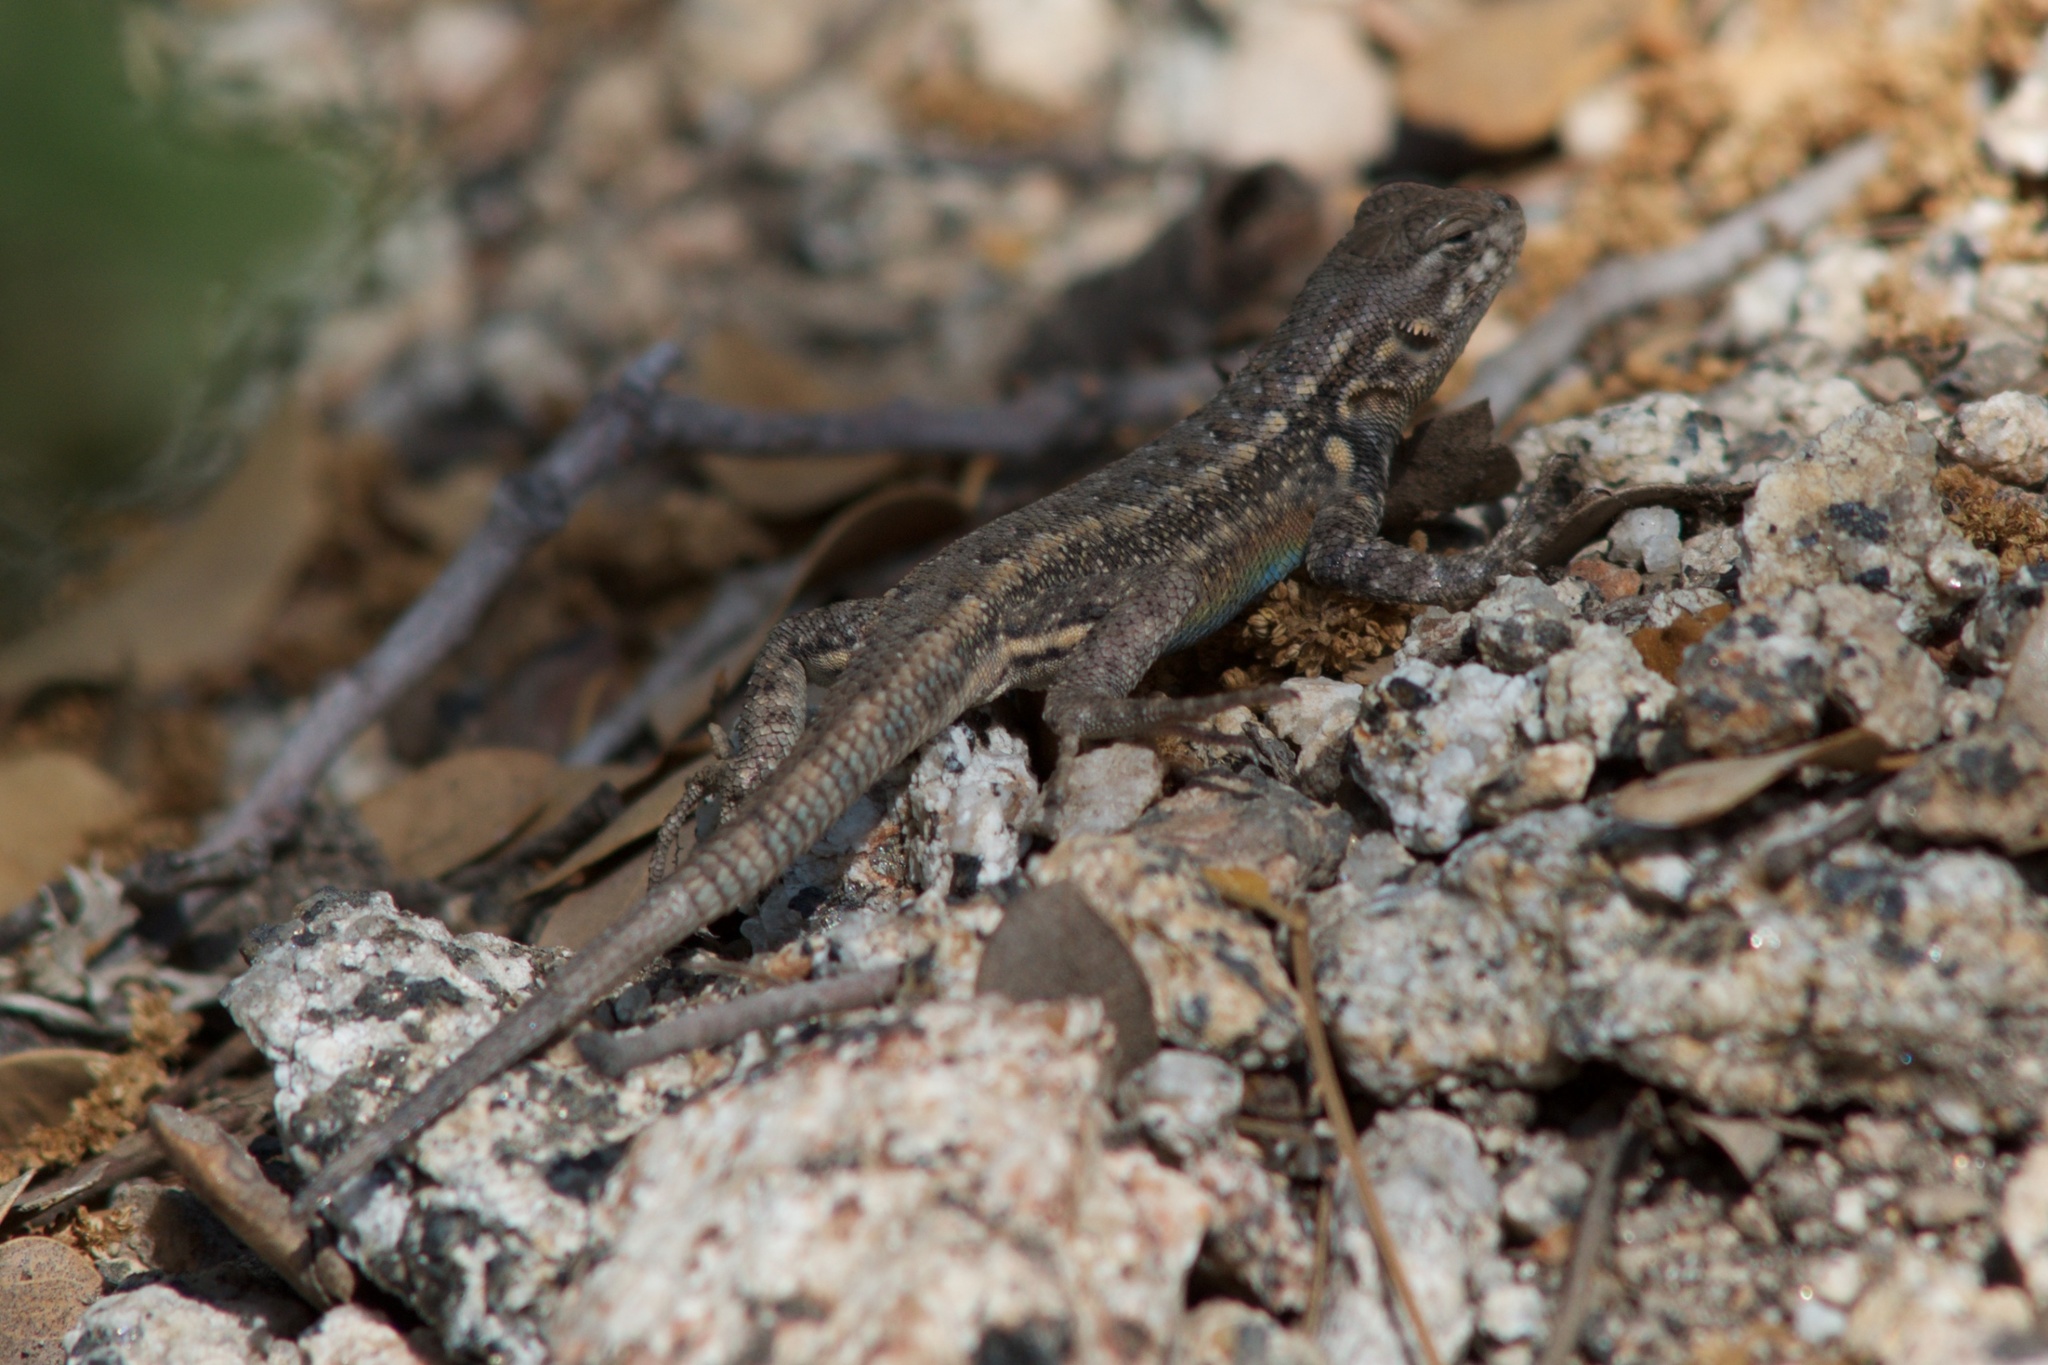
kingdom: Animalia
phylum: Chordata
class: Squamata
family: Phrynosomatidae
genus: Sceloporus
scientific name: Sceloporus graciosus
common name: Sagebrush lizard
